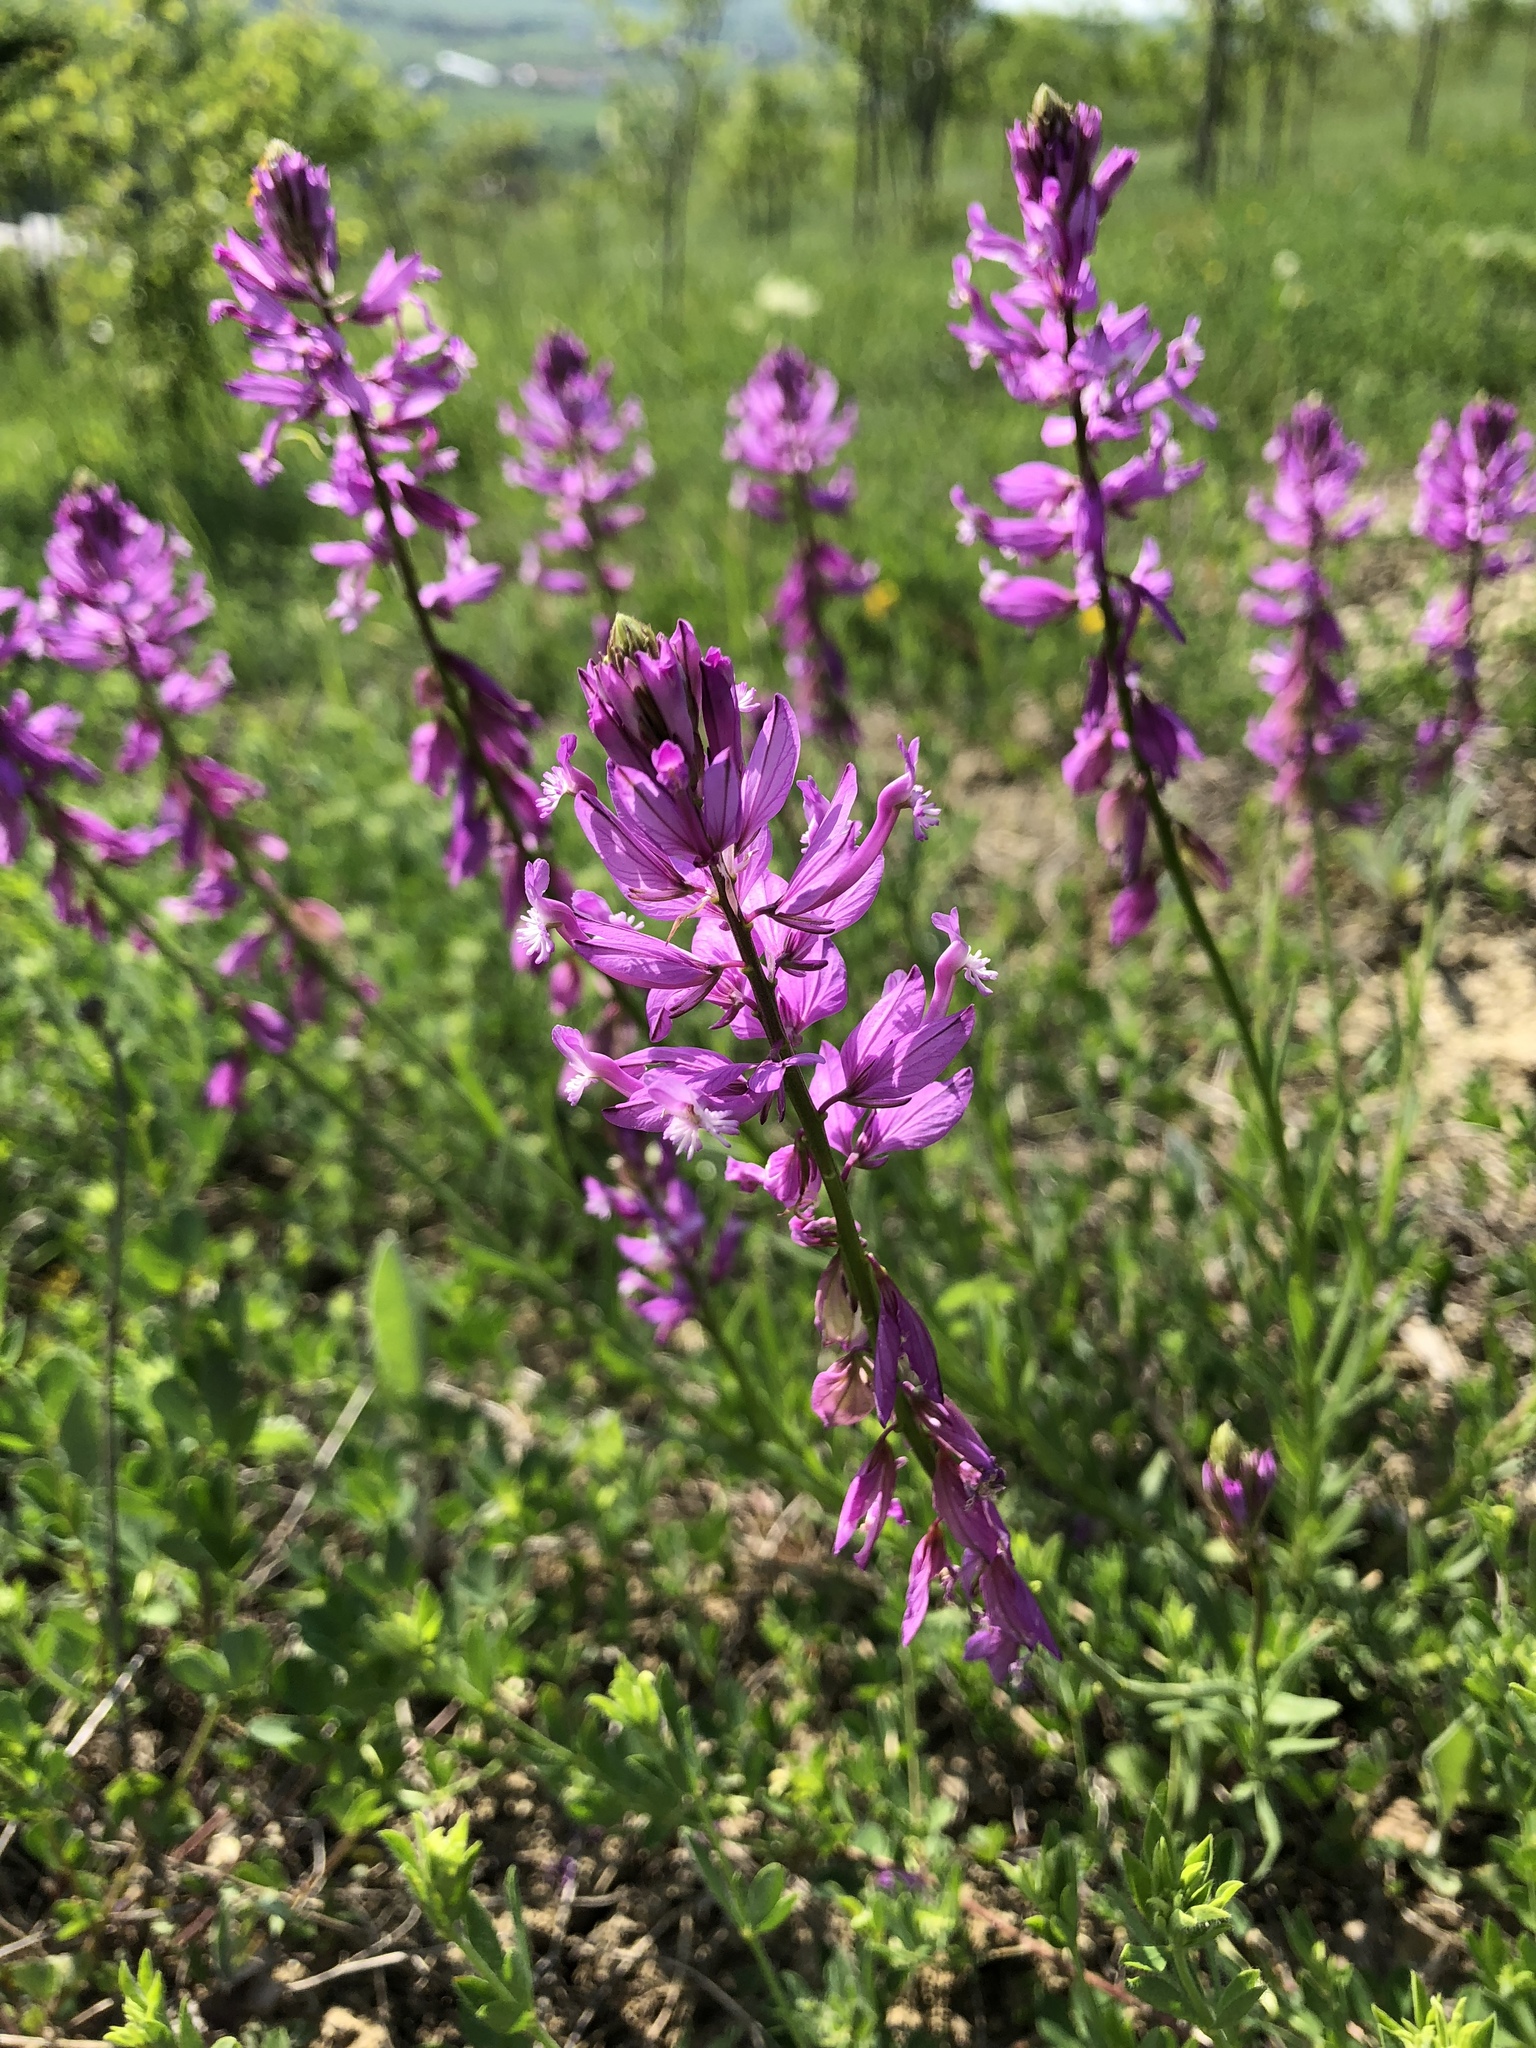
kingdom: Plantae
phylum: Tracheophyta
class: Magnoliopsida
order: Fabales
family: Polygalaceae
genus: Polygala
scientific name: Polygala vulgaris
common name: Common milkwort
